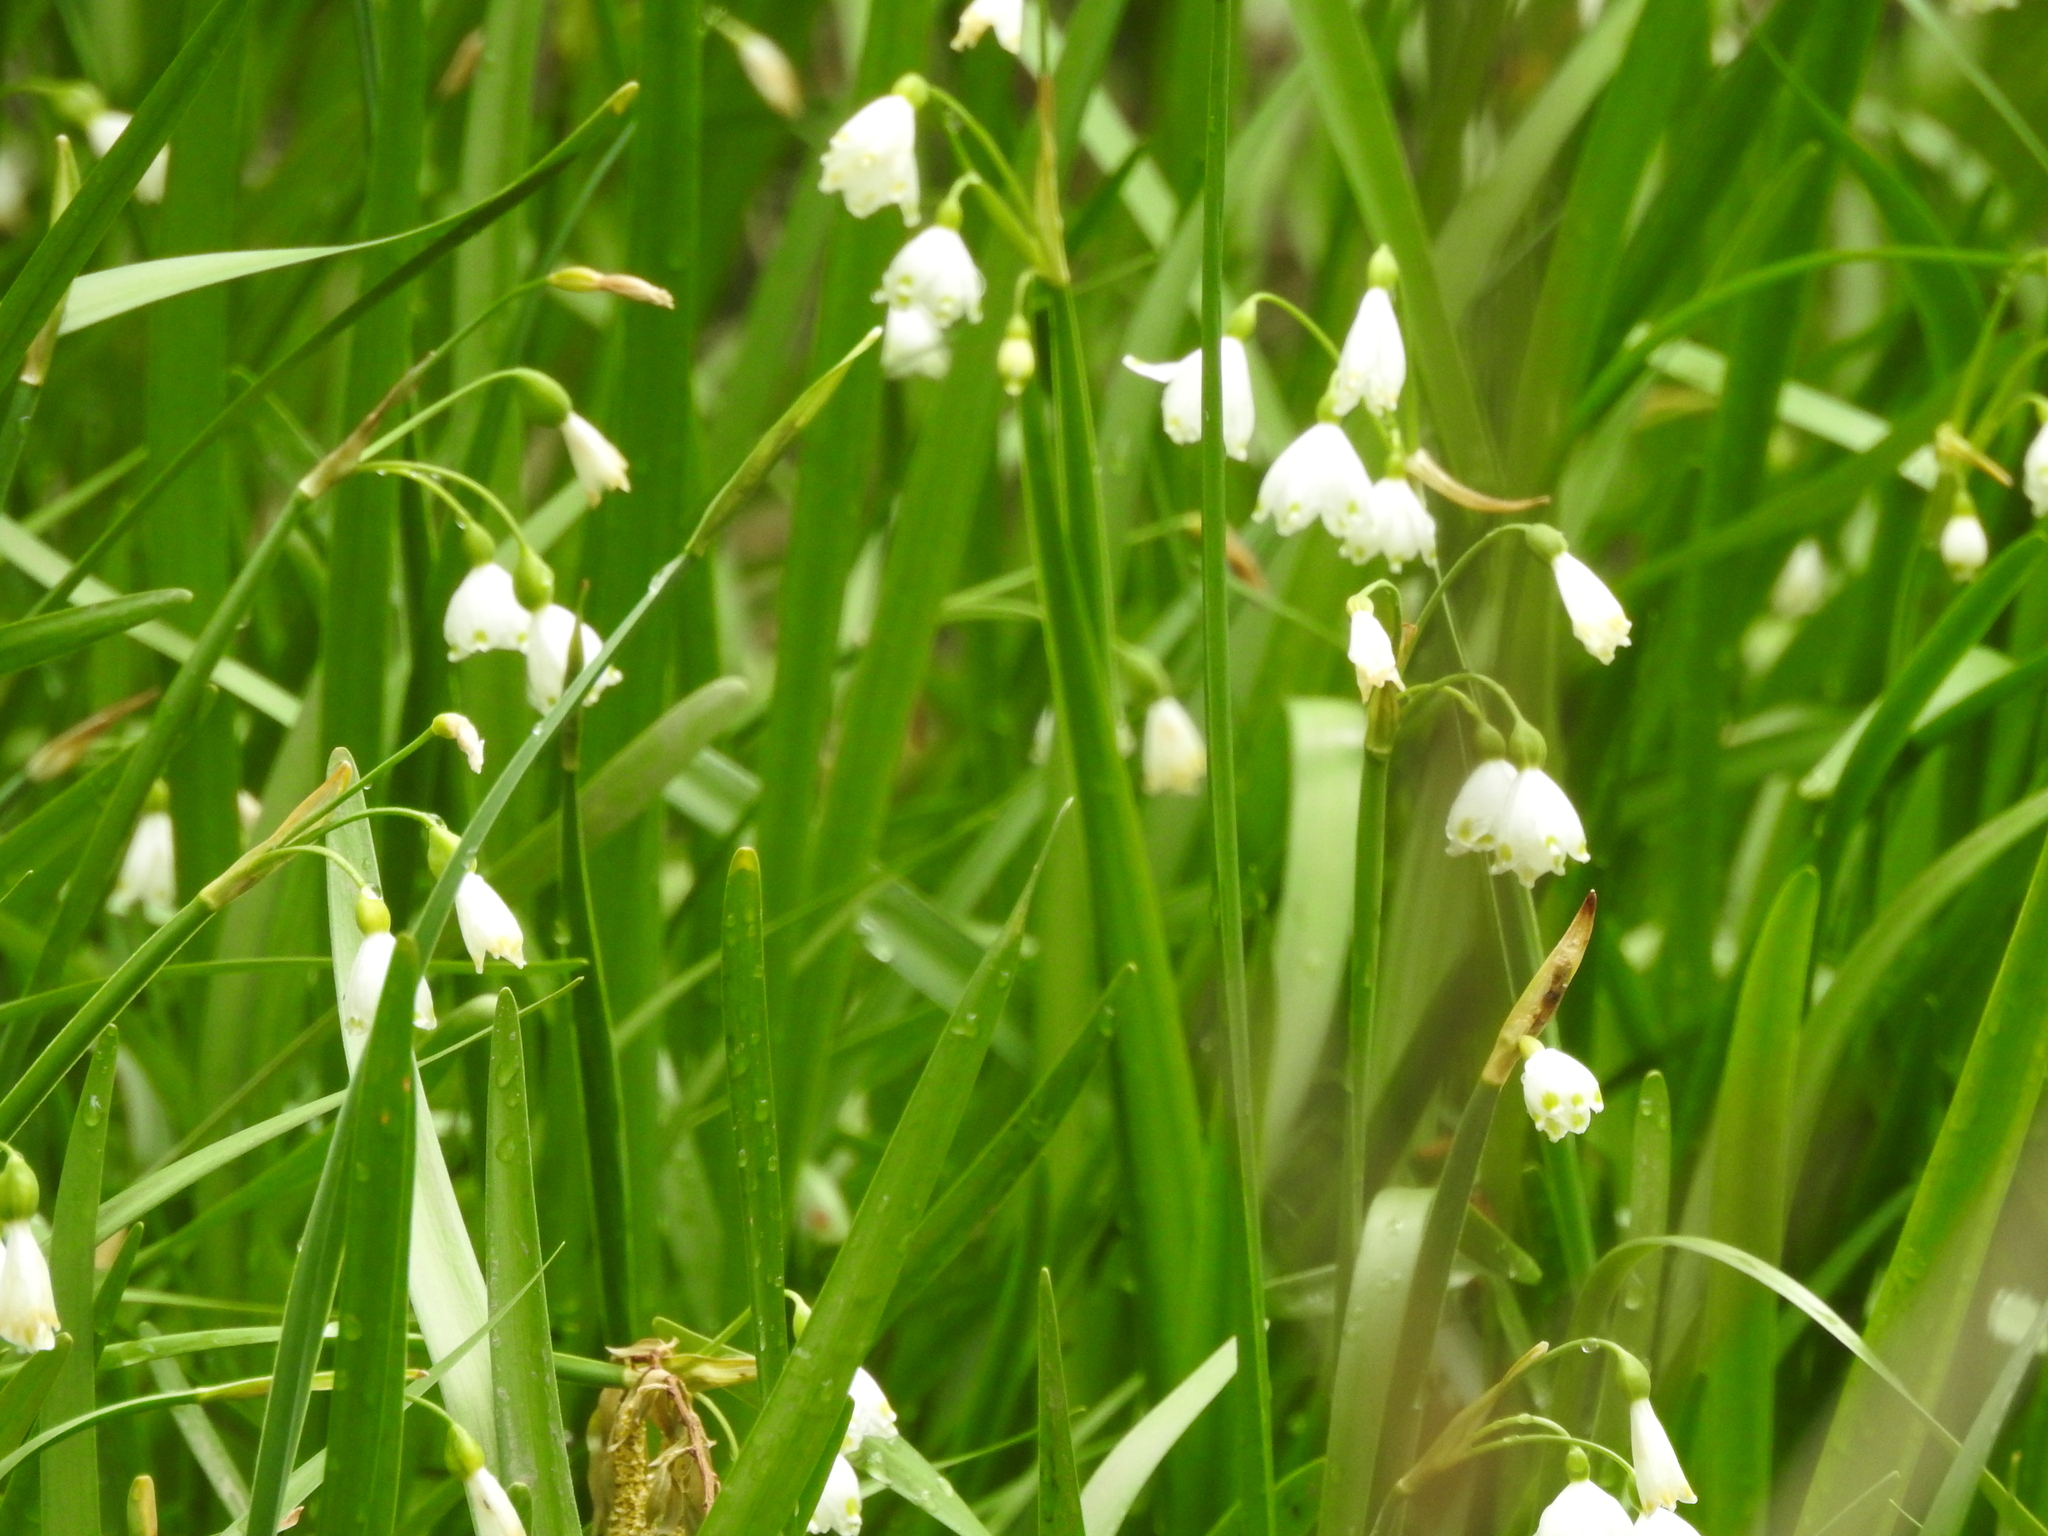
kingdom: Plantae
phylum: Tracheophyta
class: Liliopsida
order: Asparagales
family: Amaryllidaceae
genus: Leucojum
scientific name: Leucojum aestivum
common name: Summer snowflake
